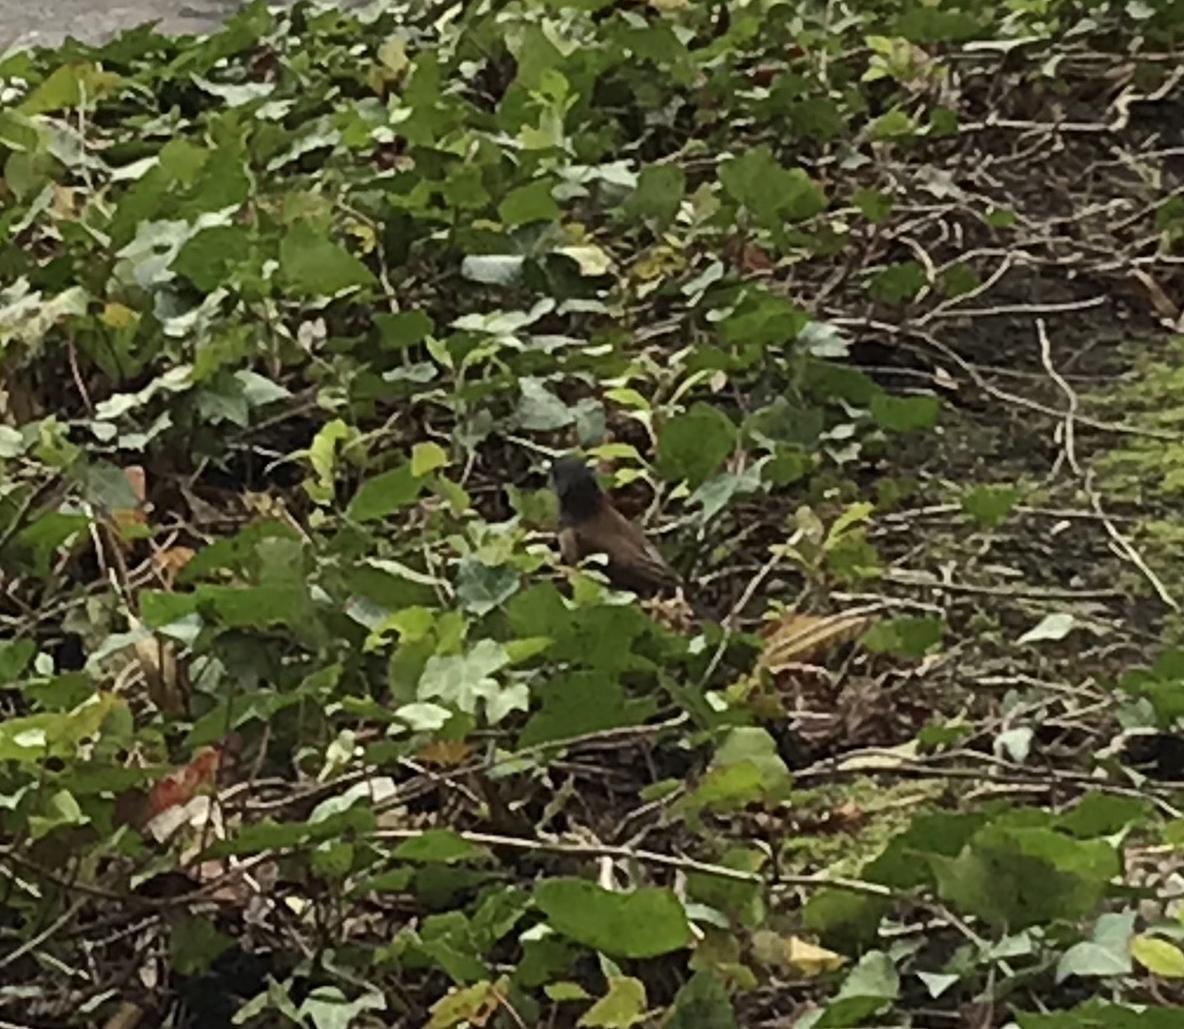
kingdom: Animalia
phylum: Chordata
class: Aves
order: Passeriformes
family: Passerellidae
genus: Junco
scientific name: Junco hyemalis
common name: Dark-eyed junco
